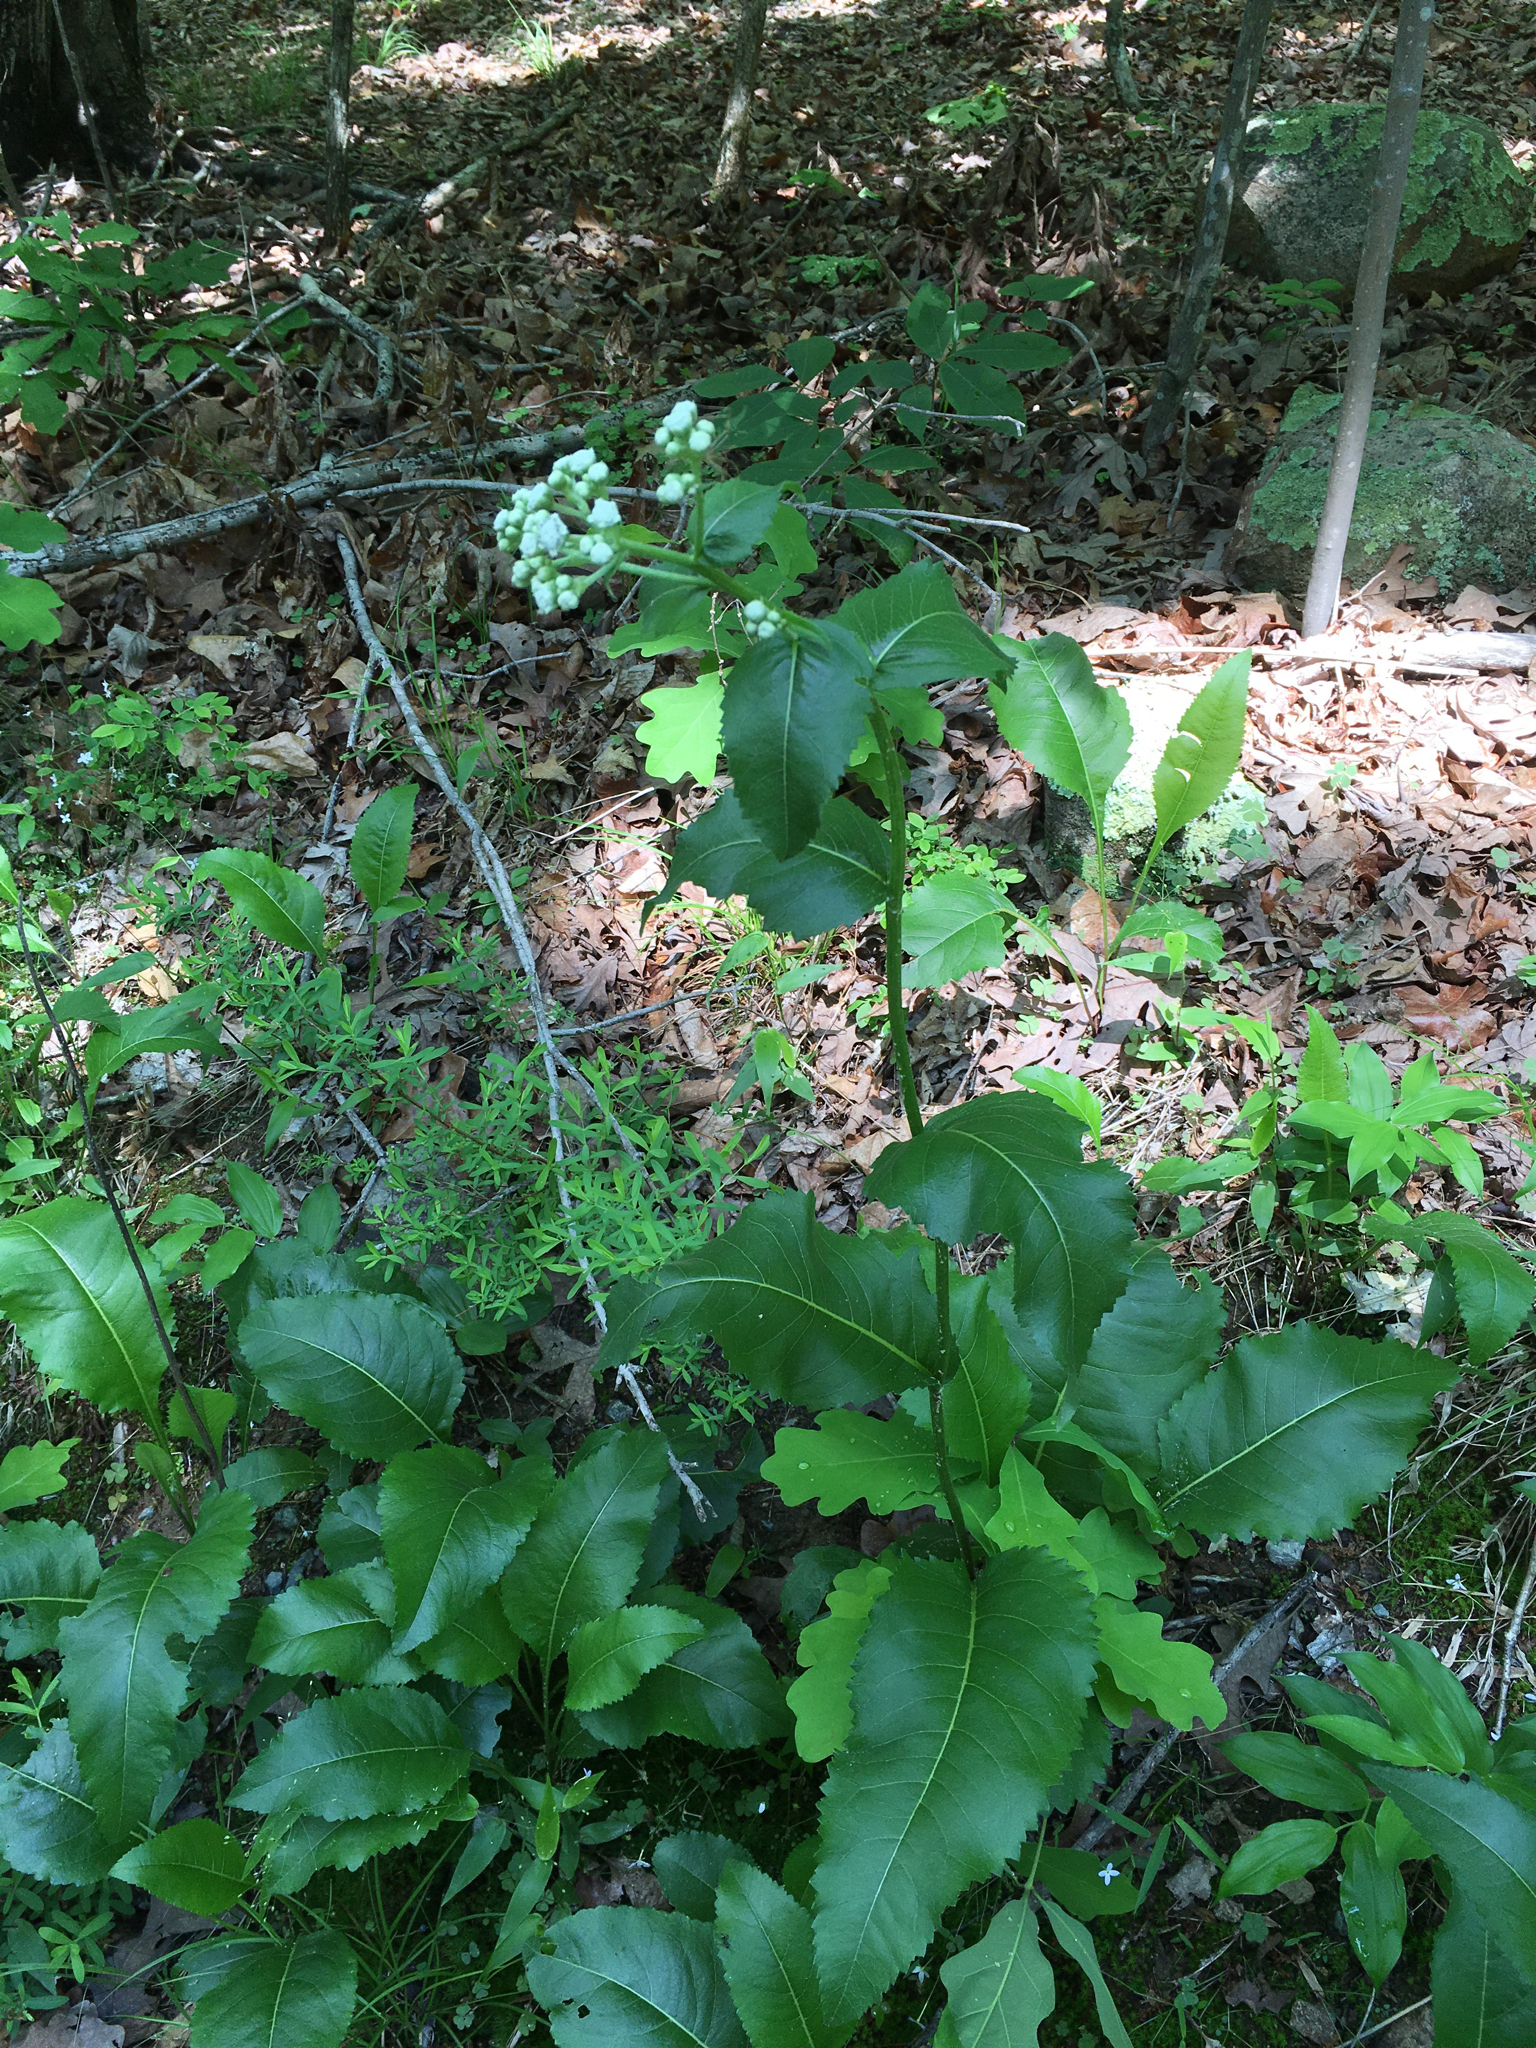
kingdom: Plantae
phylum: Tracheophyta
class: Magnoliopsida
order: Asterales
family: Asteraceae
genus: Parthenium
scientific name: Parthenium integrifolium
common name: American feverfew
